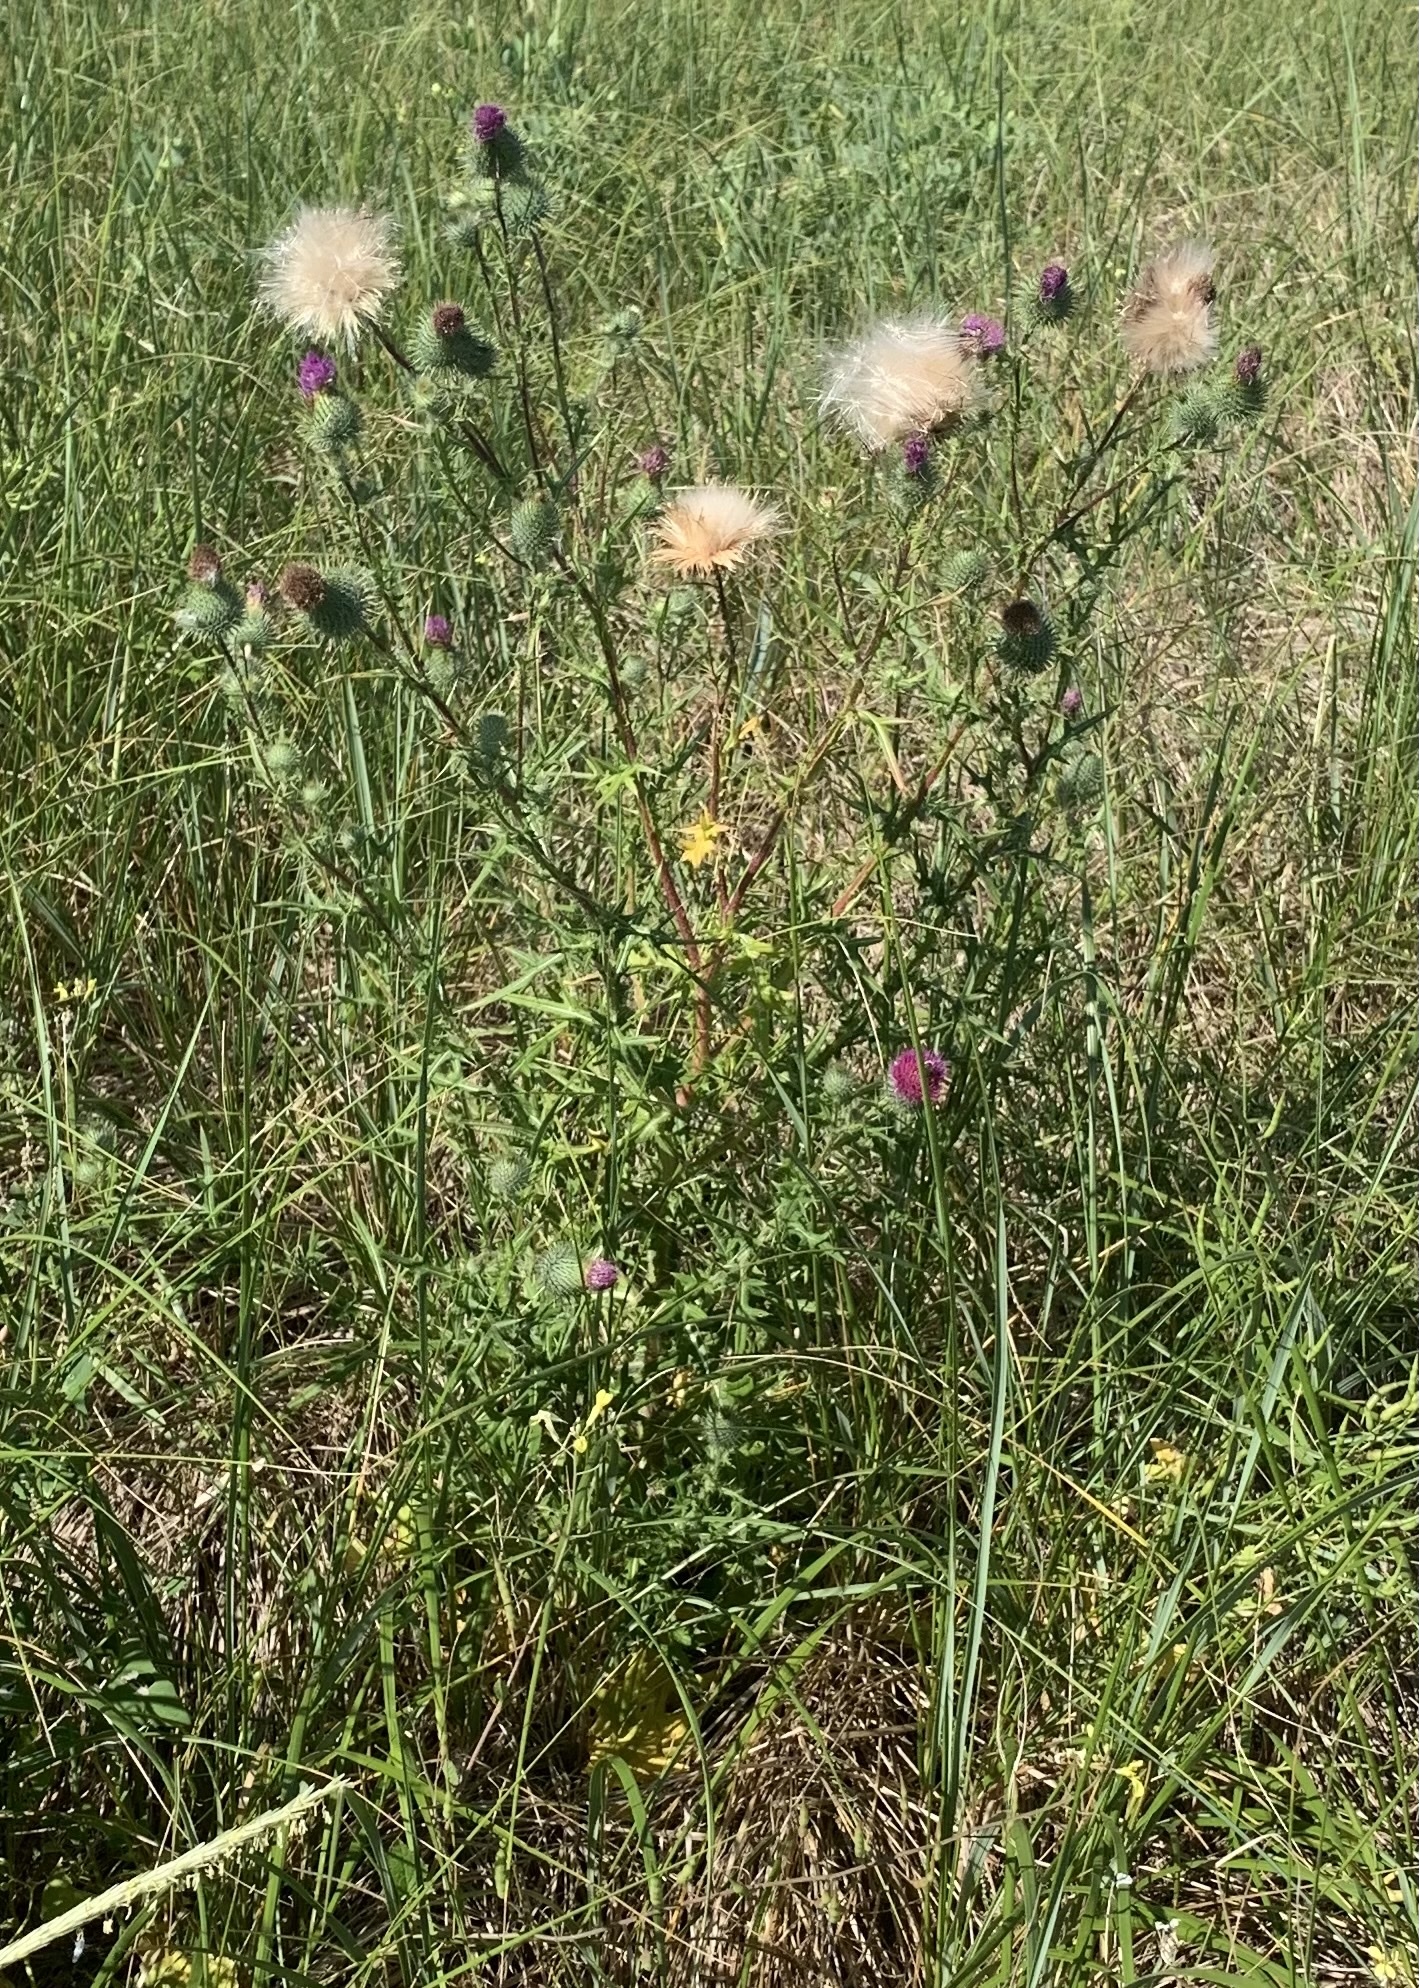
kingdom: Plantae
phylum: Tracheophyta
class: Magnoliopsida
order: Asterales
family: Asteraceae
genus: Cirsium
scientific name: Cirsium vulgare
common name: Bull thistle
